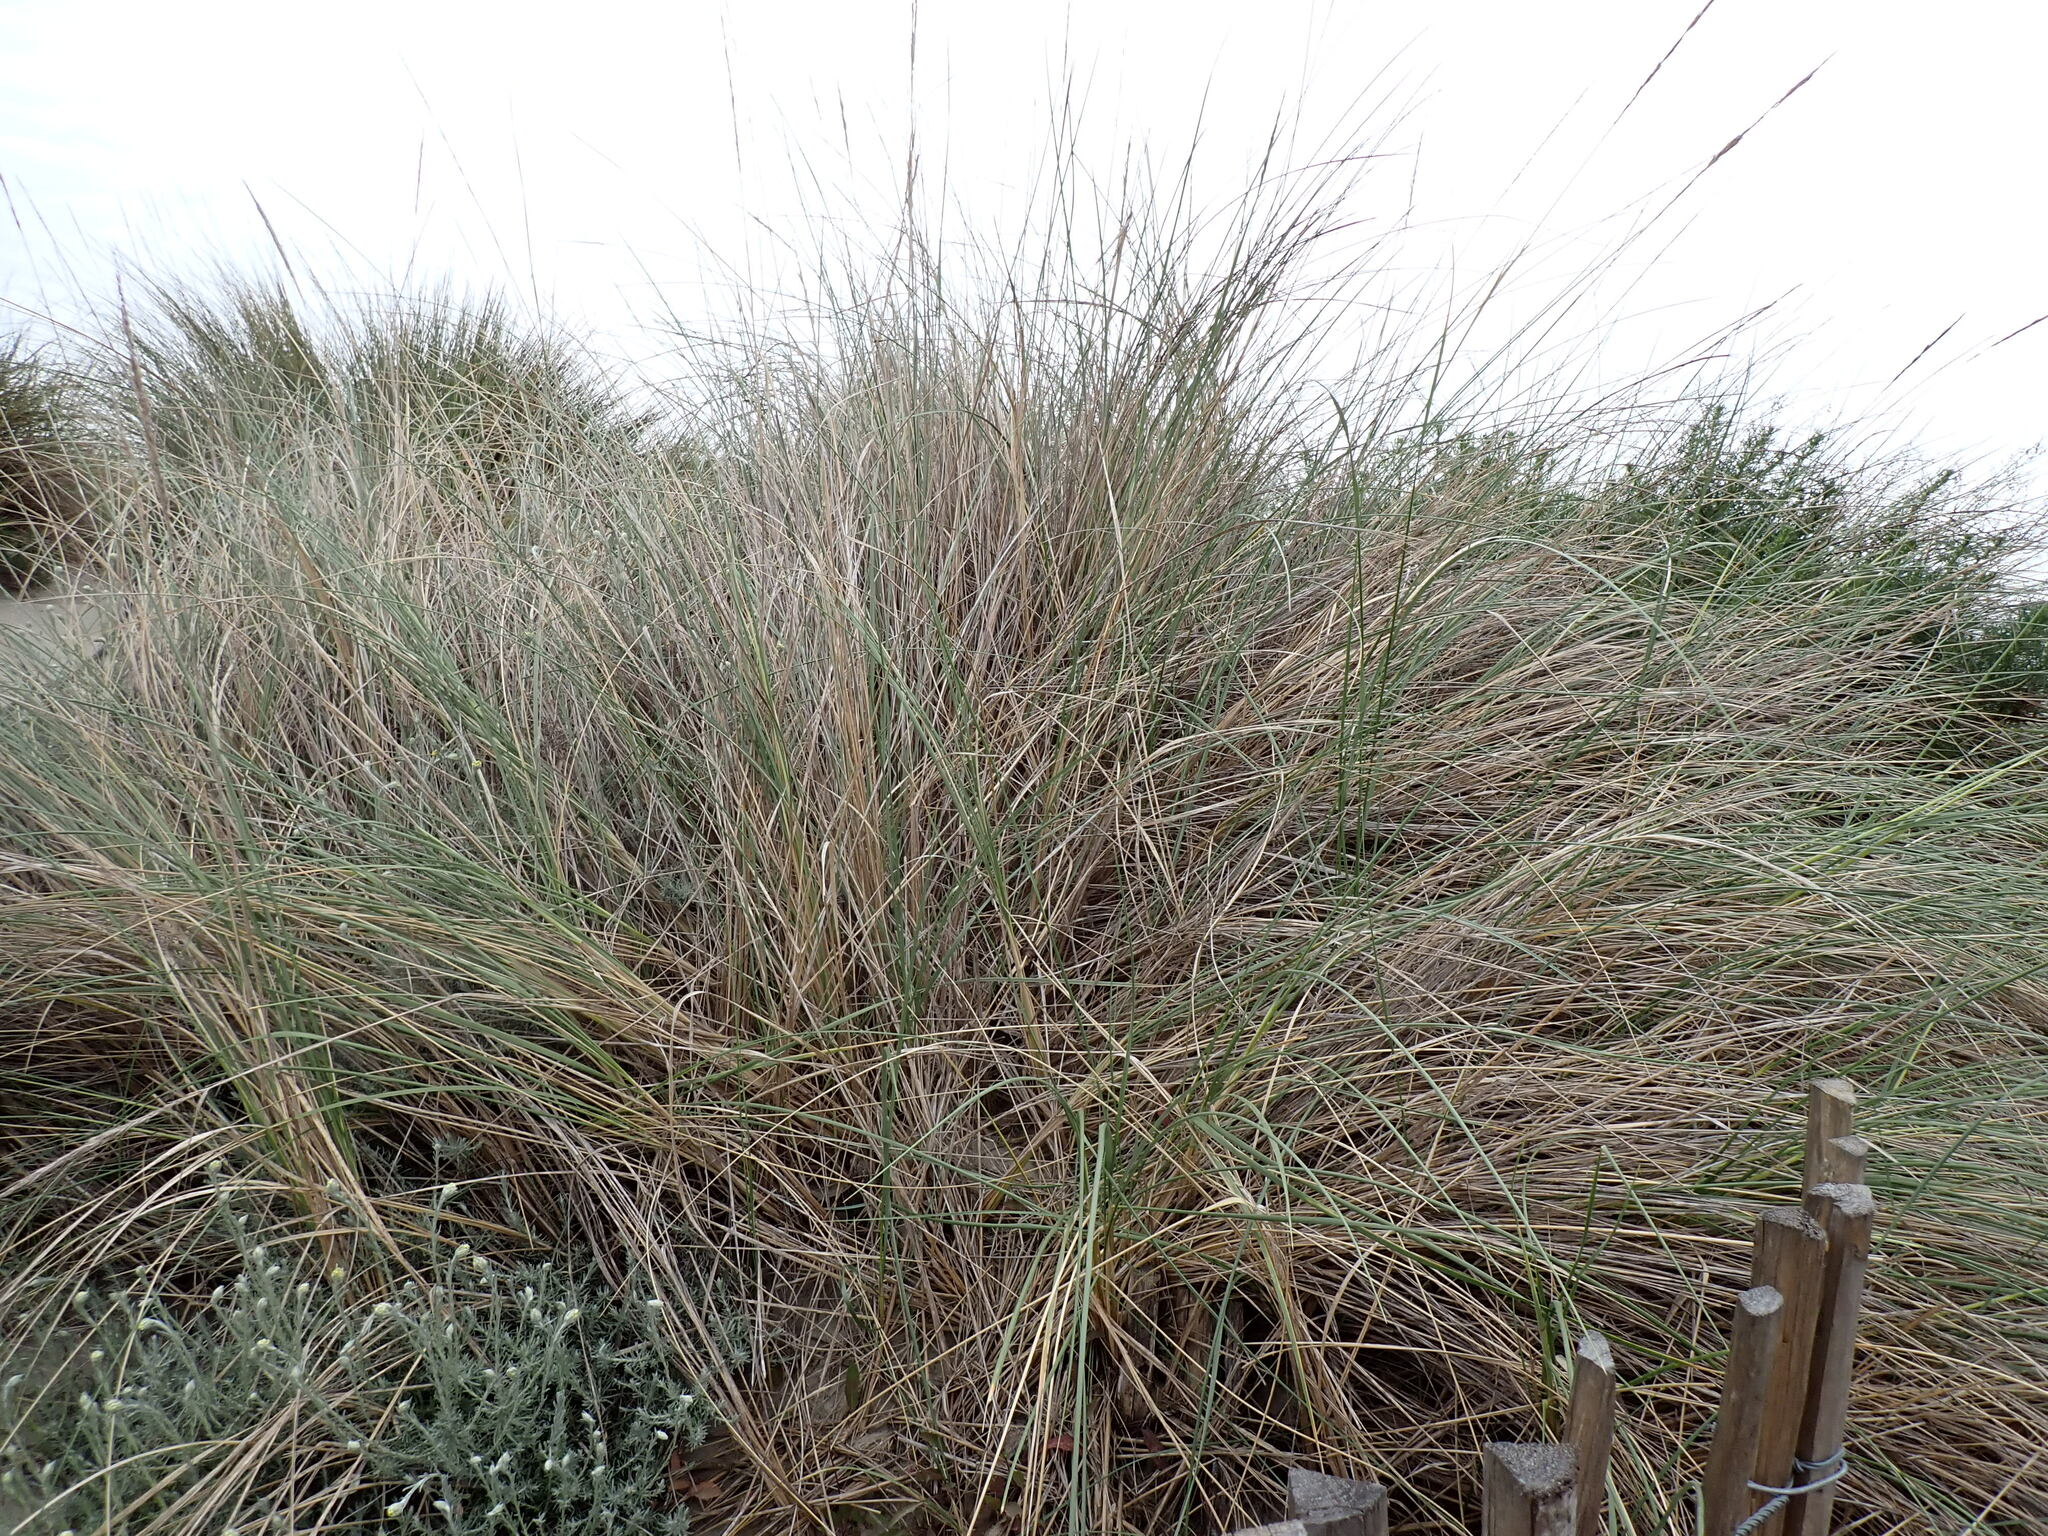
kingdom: Plantae
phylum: Tracheophyta
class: Liliopsida
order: Poales
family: Poaceae
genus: Calamagrostis
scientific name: Calamagrostis arenaria
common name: European beachgrass
